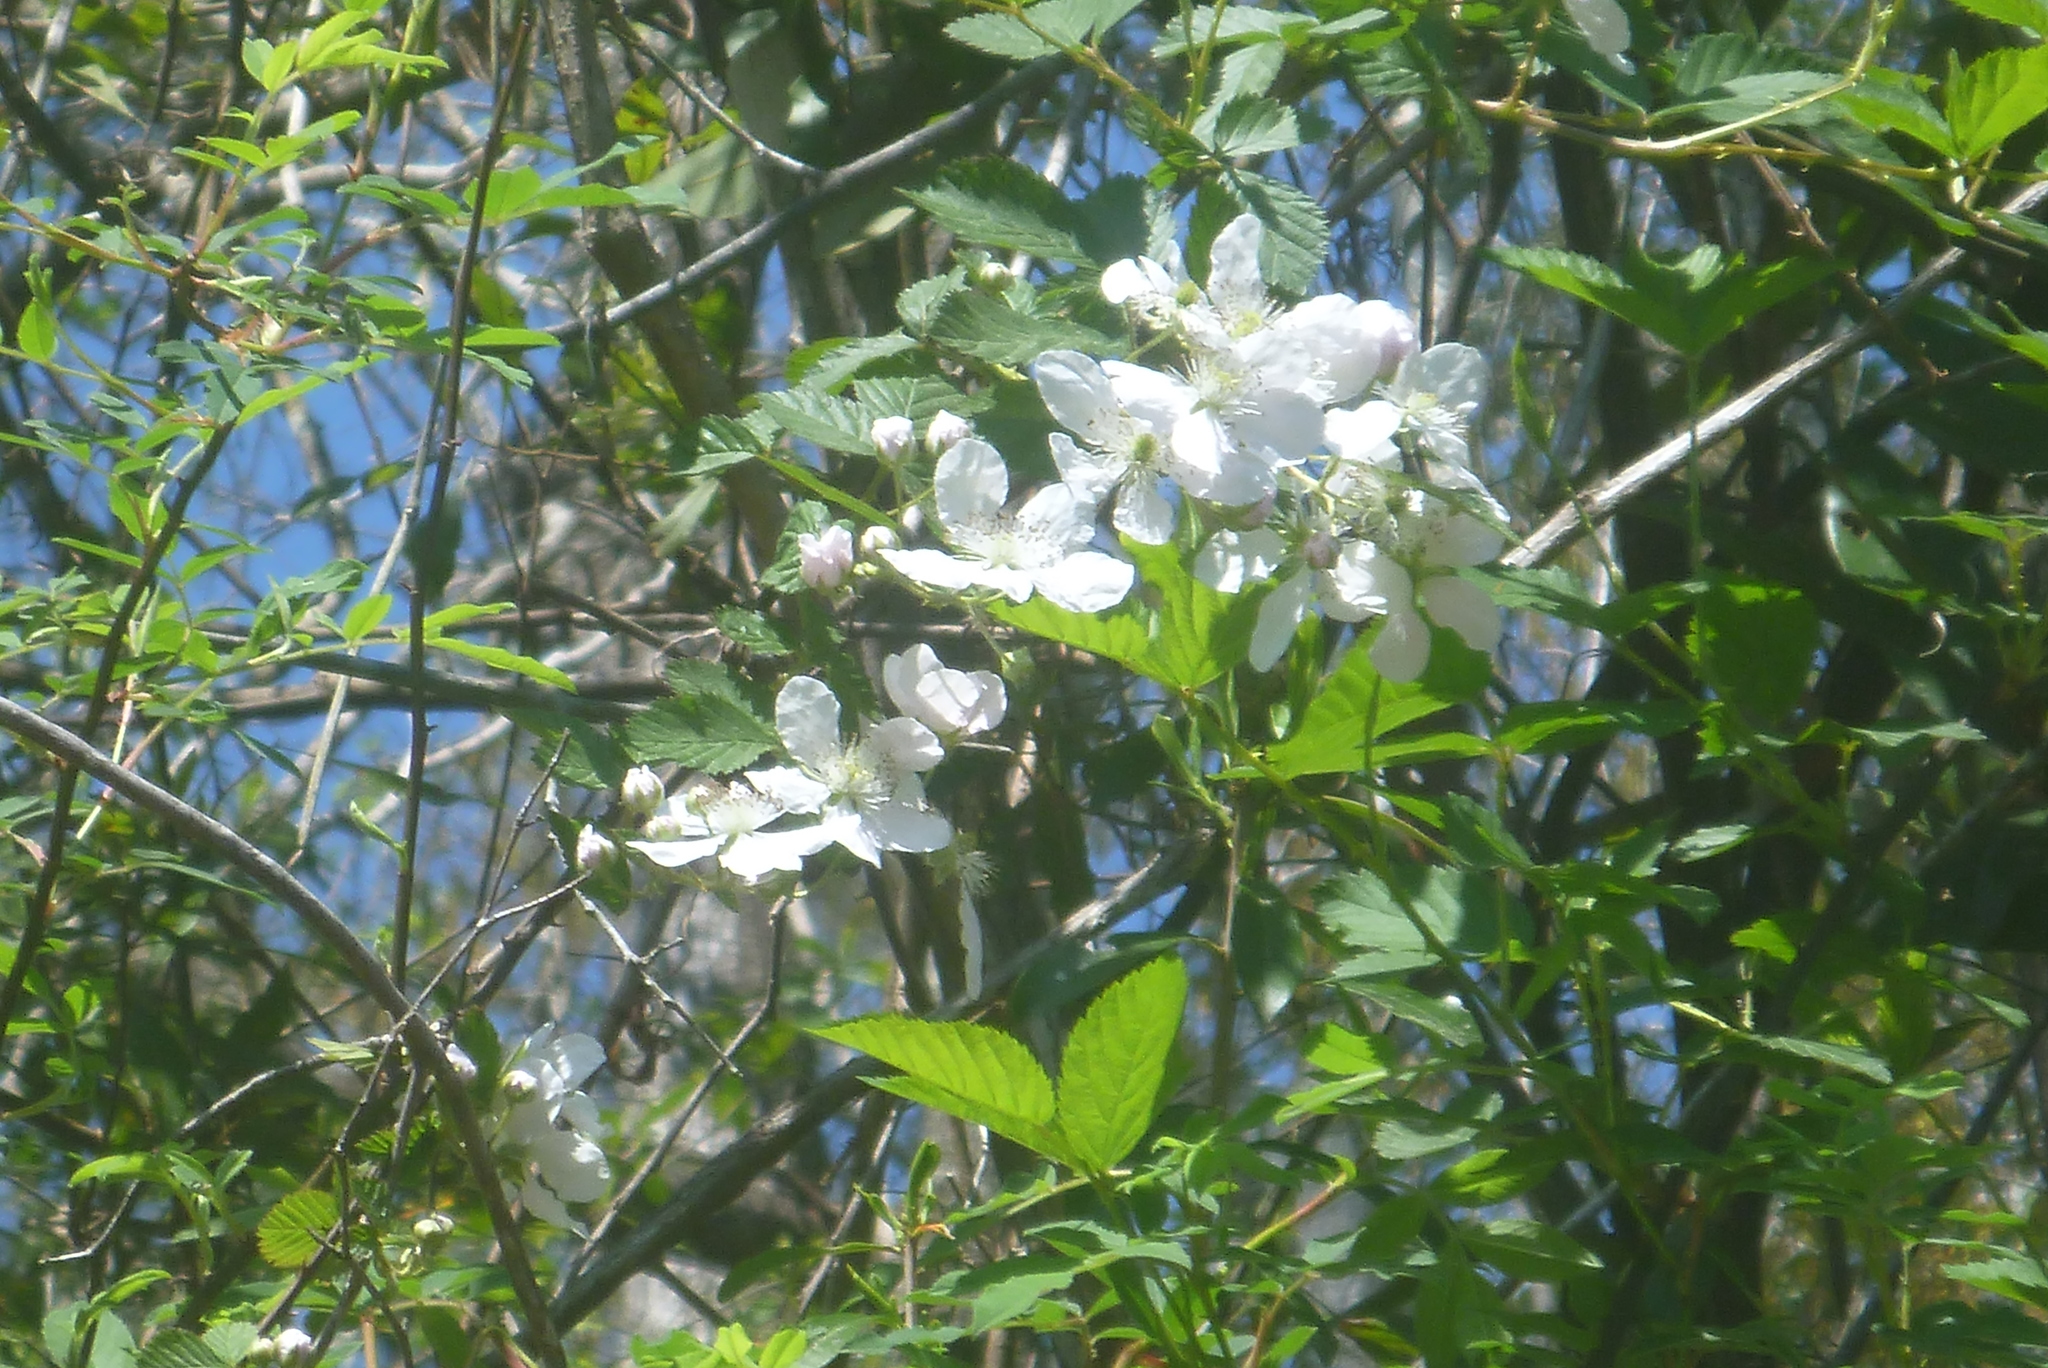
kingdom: Plantae
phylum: Tracheophyta
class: Magnoliopsida
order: Rosales
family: Rosaceae
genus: Rubus
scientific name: Rubus pensilvanicus
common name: Pennsylvania blackberry
